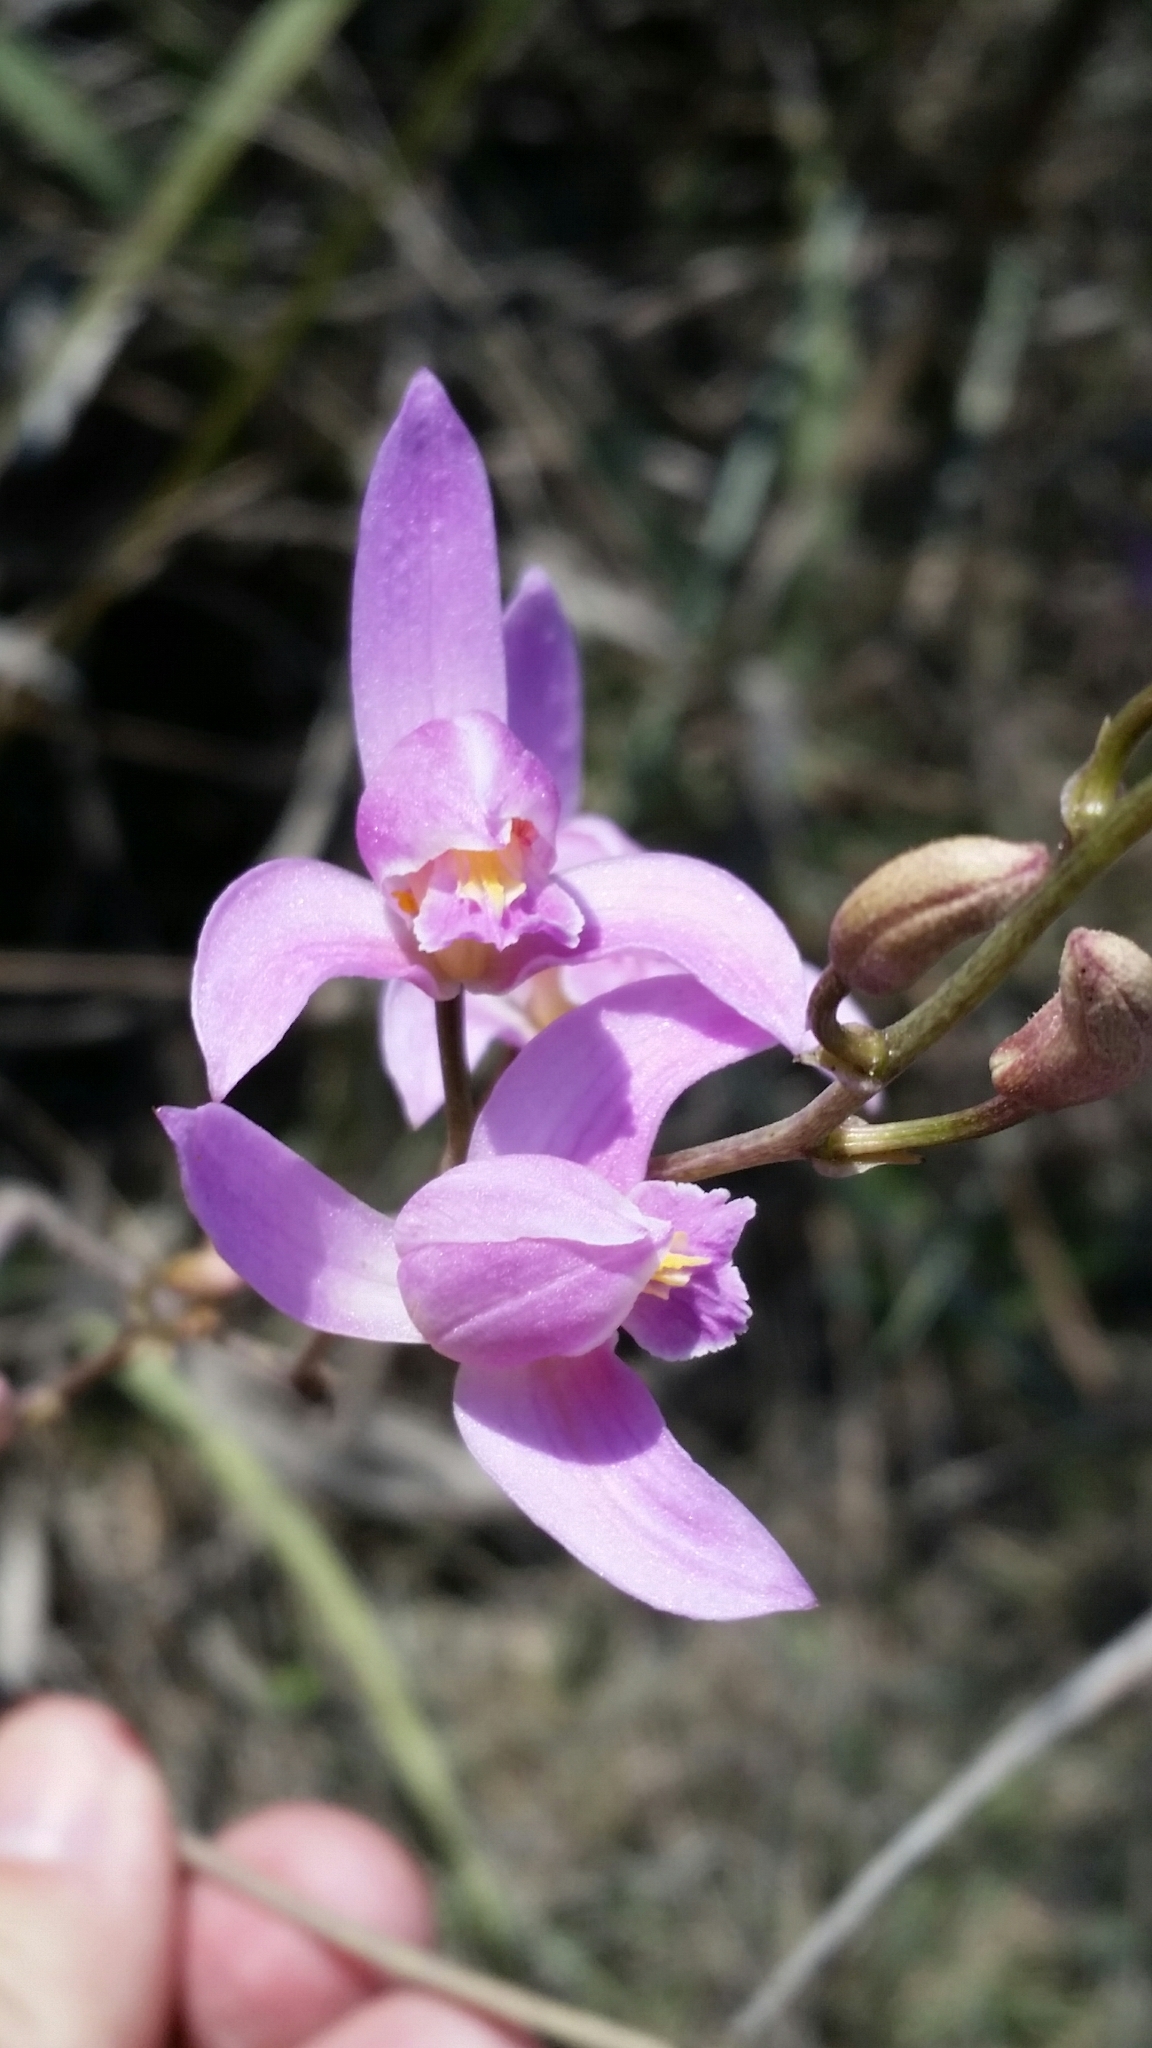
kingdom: Plantae
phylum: Tracheophyta
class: Liliopsida
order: Asparagales
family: Orchidaceae
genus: Bletia
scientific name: Bletia purpurea
